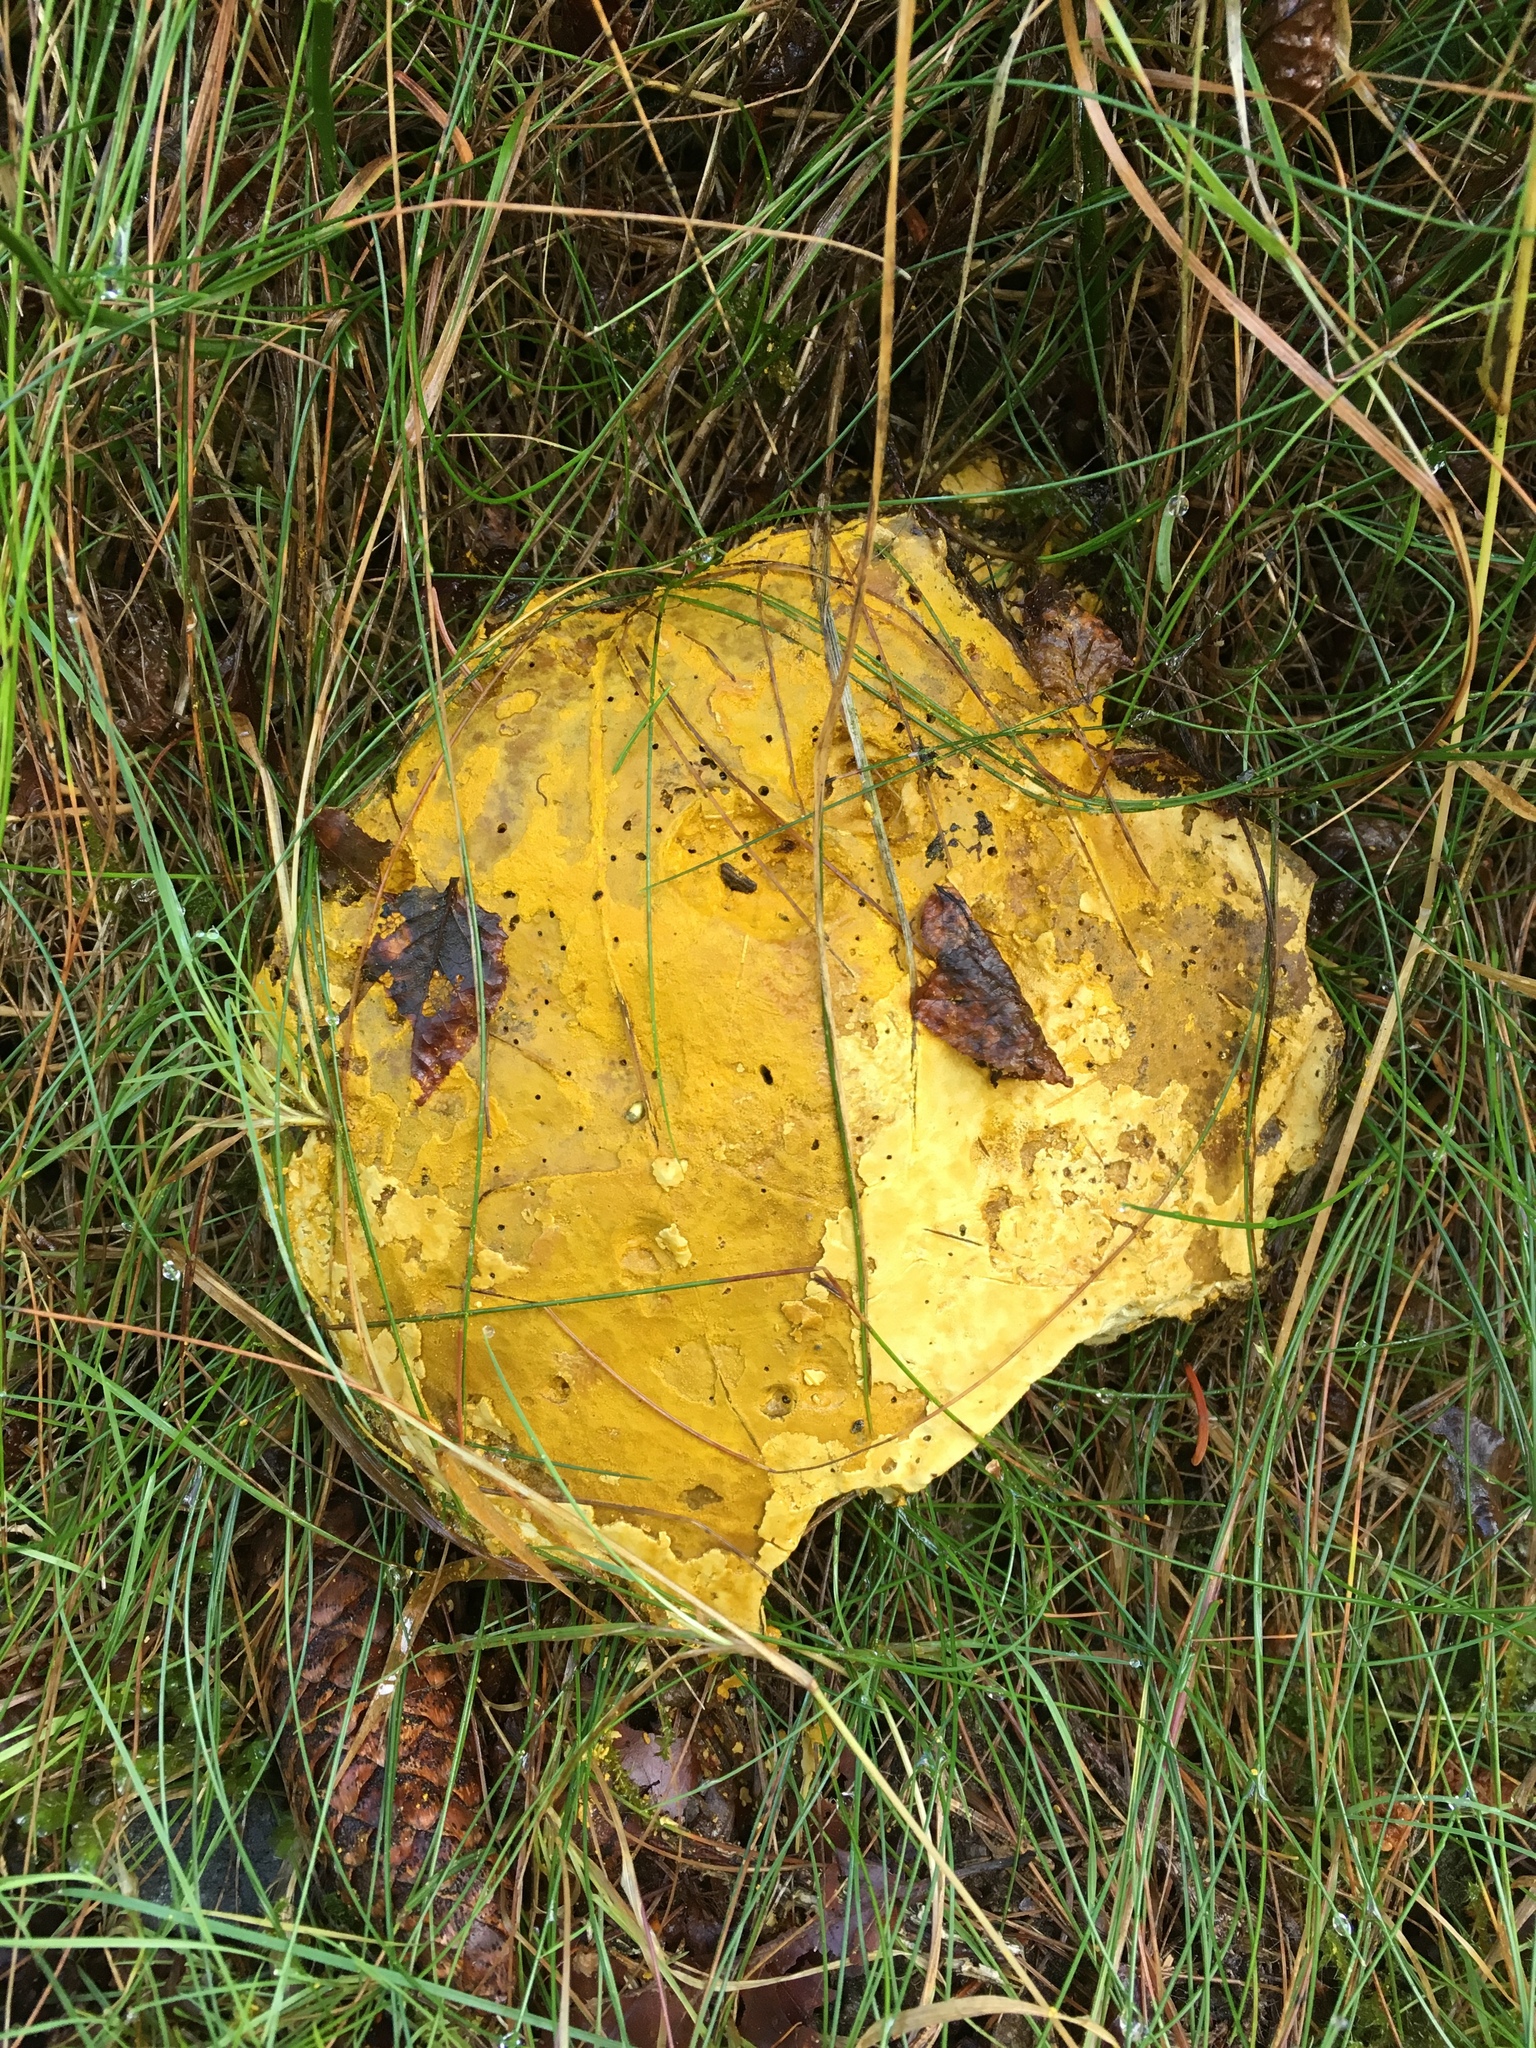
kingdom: Fungi
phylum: Ascomycota
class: Sordariomycetes
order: Hypocreales
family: Hypocreaceae
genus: Hypomyces
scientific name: Hypomyces chrysospermus
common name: Bolete mould
